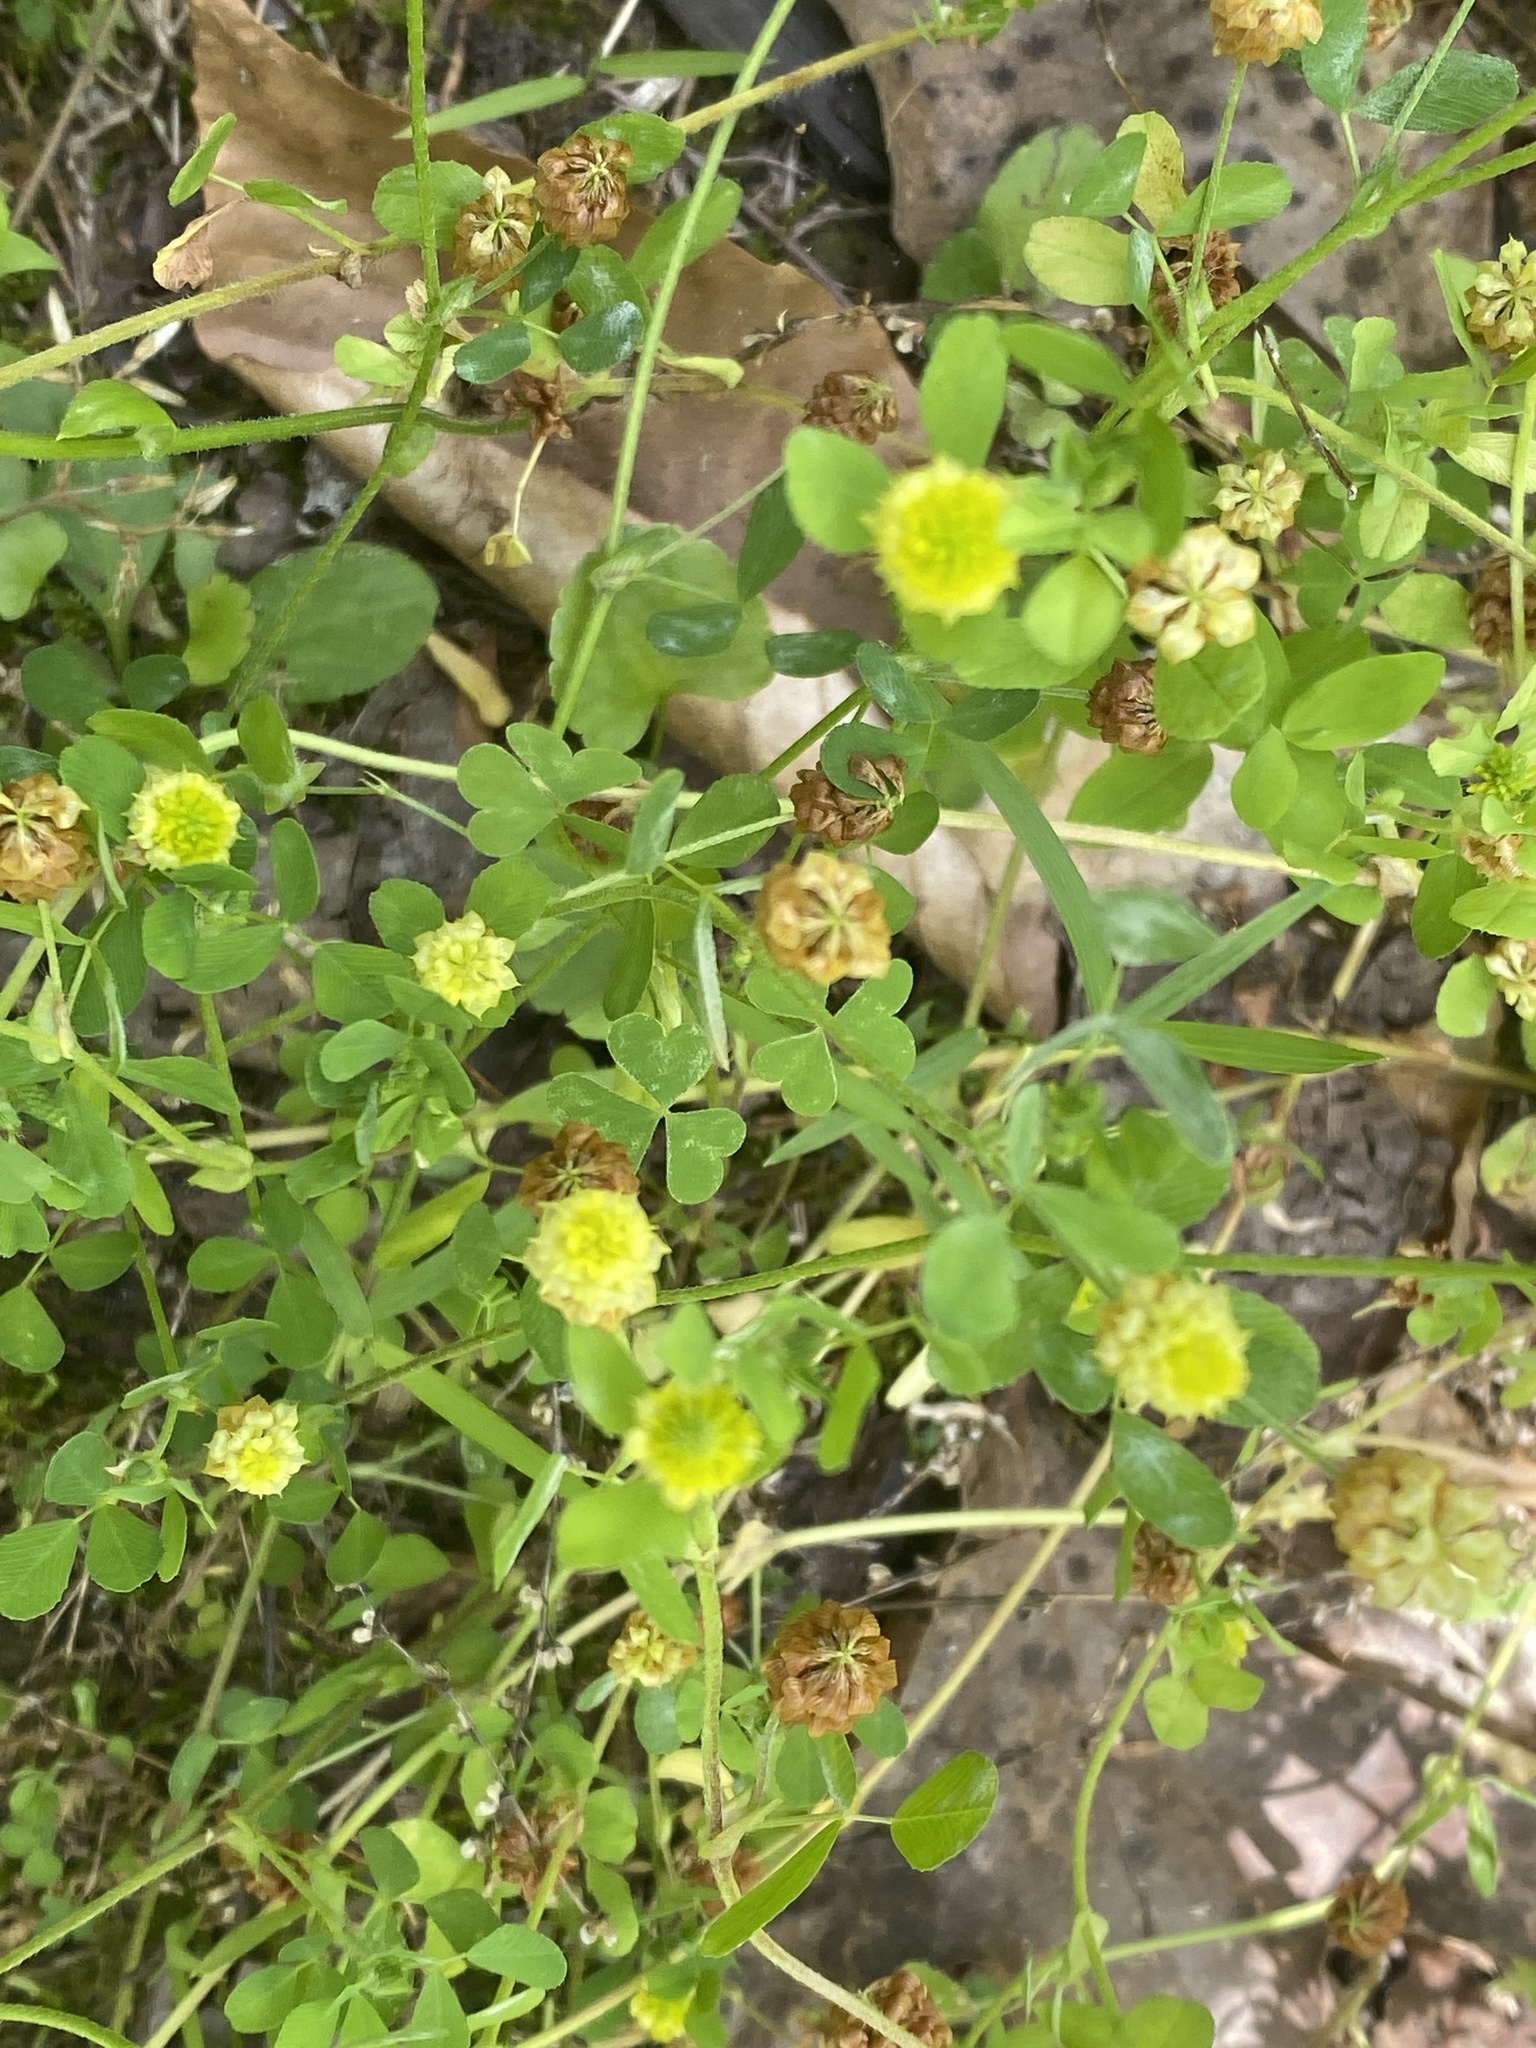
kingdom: Plantae
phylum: Tracheophyta
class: Magnoliopsida
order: Fabales
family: Fabaceae
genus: Trifolium
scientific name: Trifolium campestre
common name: Field clover
